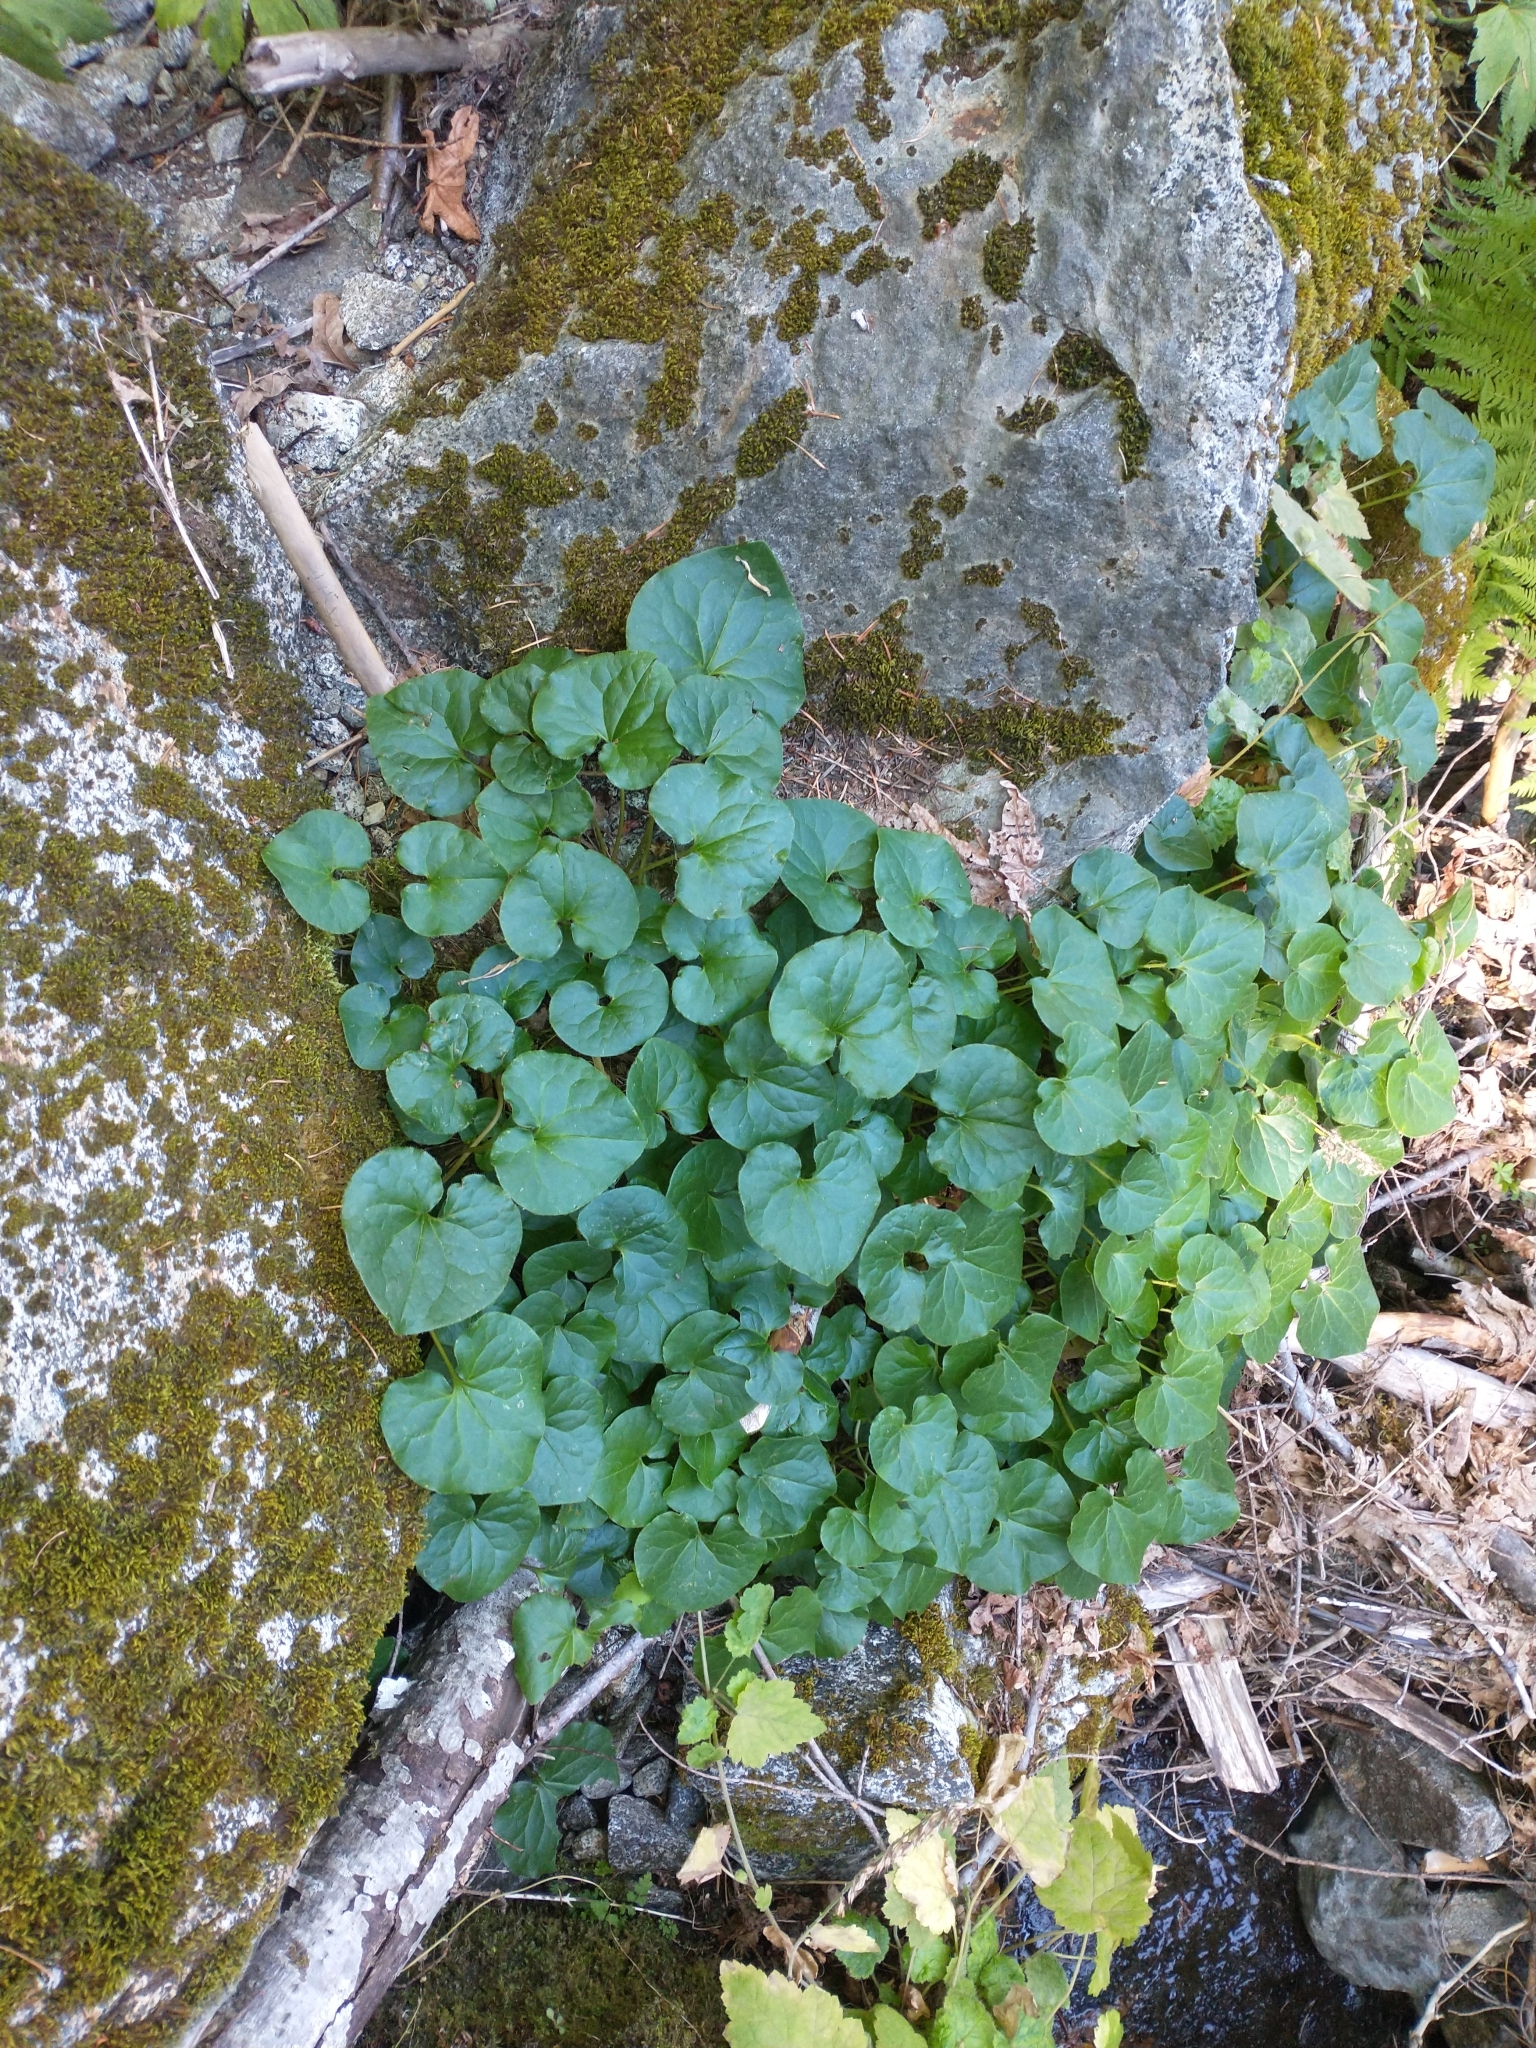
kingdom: Plantae
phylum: Tracheophyta
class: Magnoliopsida
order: Piperales
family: Aristolochiaceae
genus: Asarum
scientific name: Asarum caudatum
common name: Wild ginger
